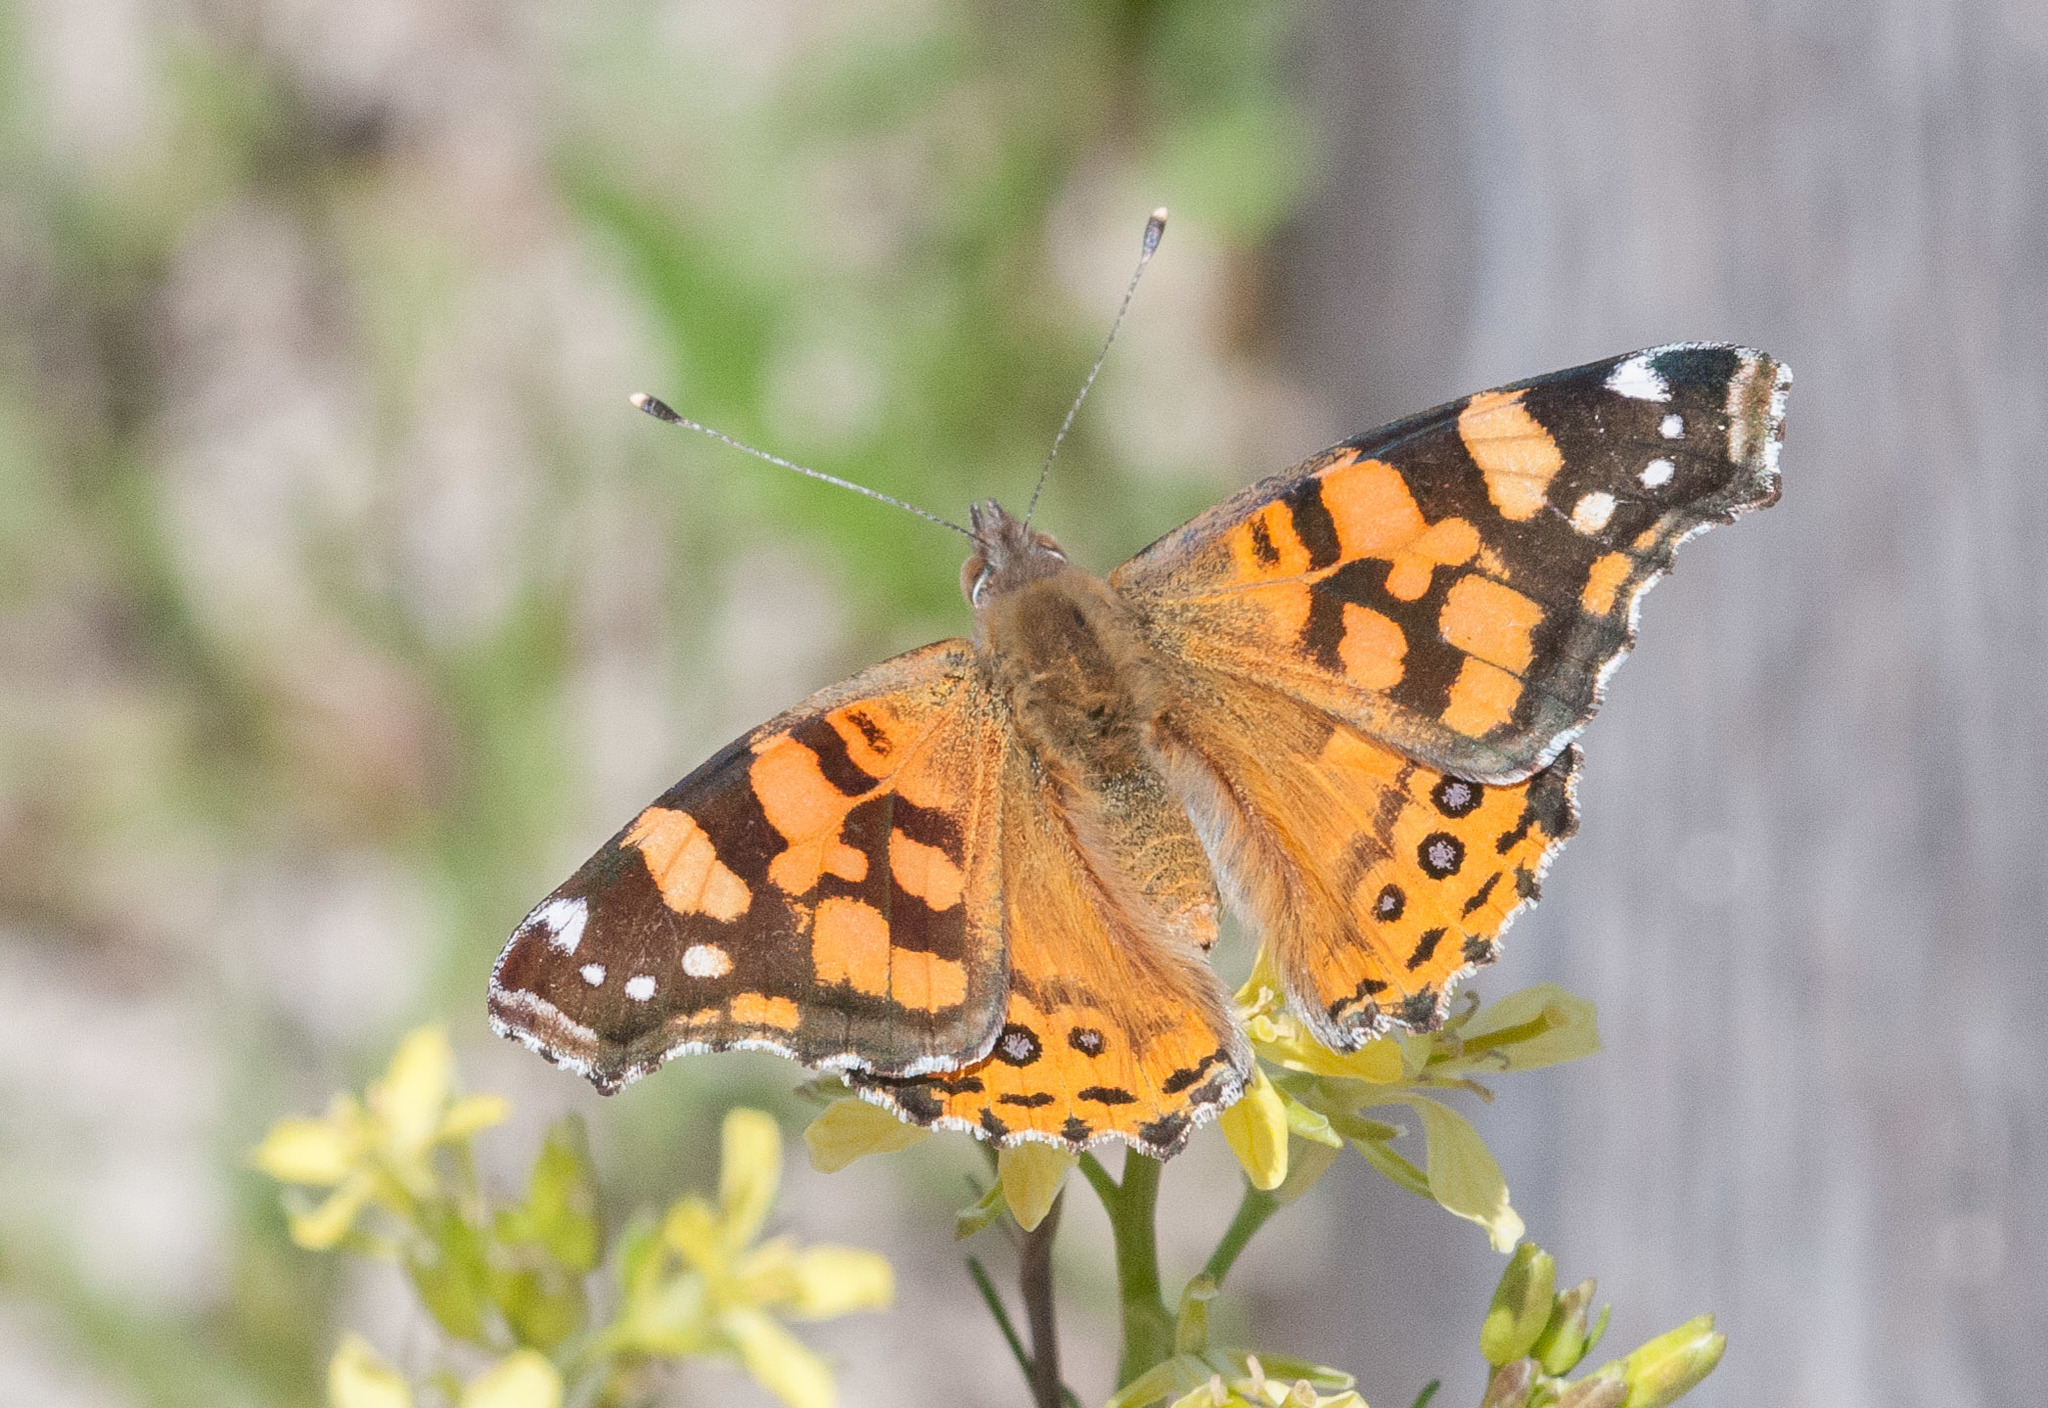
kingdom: Animalia
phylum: Arthropoda
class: Insecta
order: Lepidoptera
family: Nymphalidae
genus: Vanessa
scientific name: Vanessa annabella
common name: West coast lady
